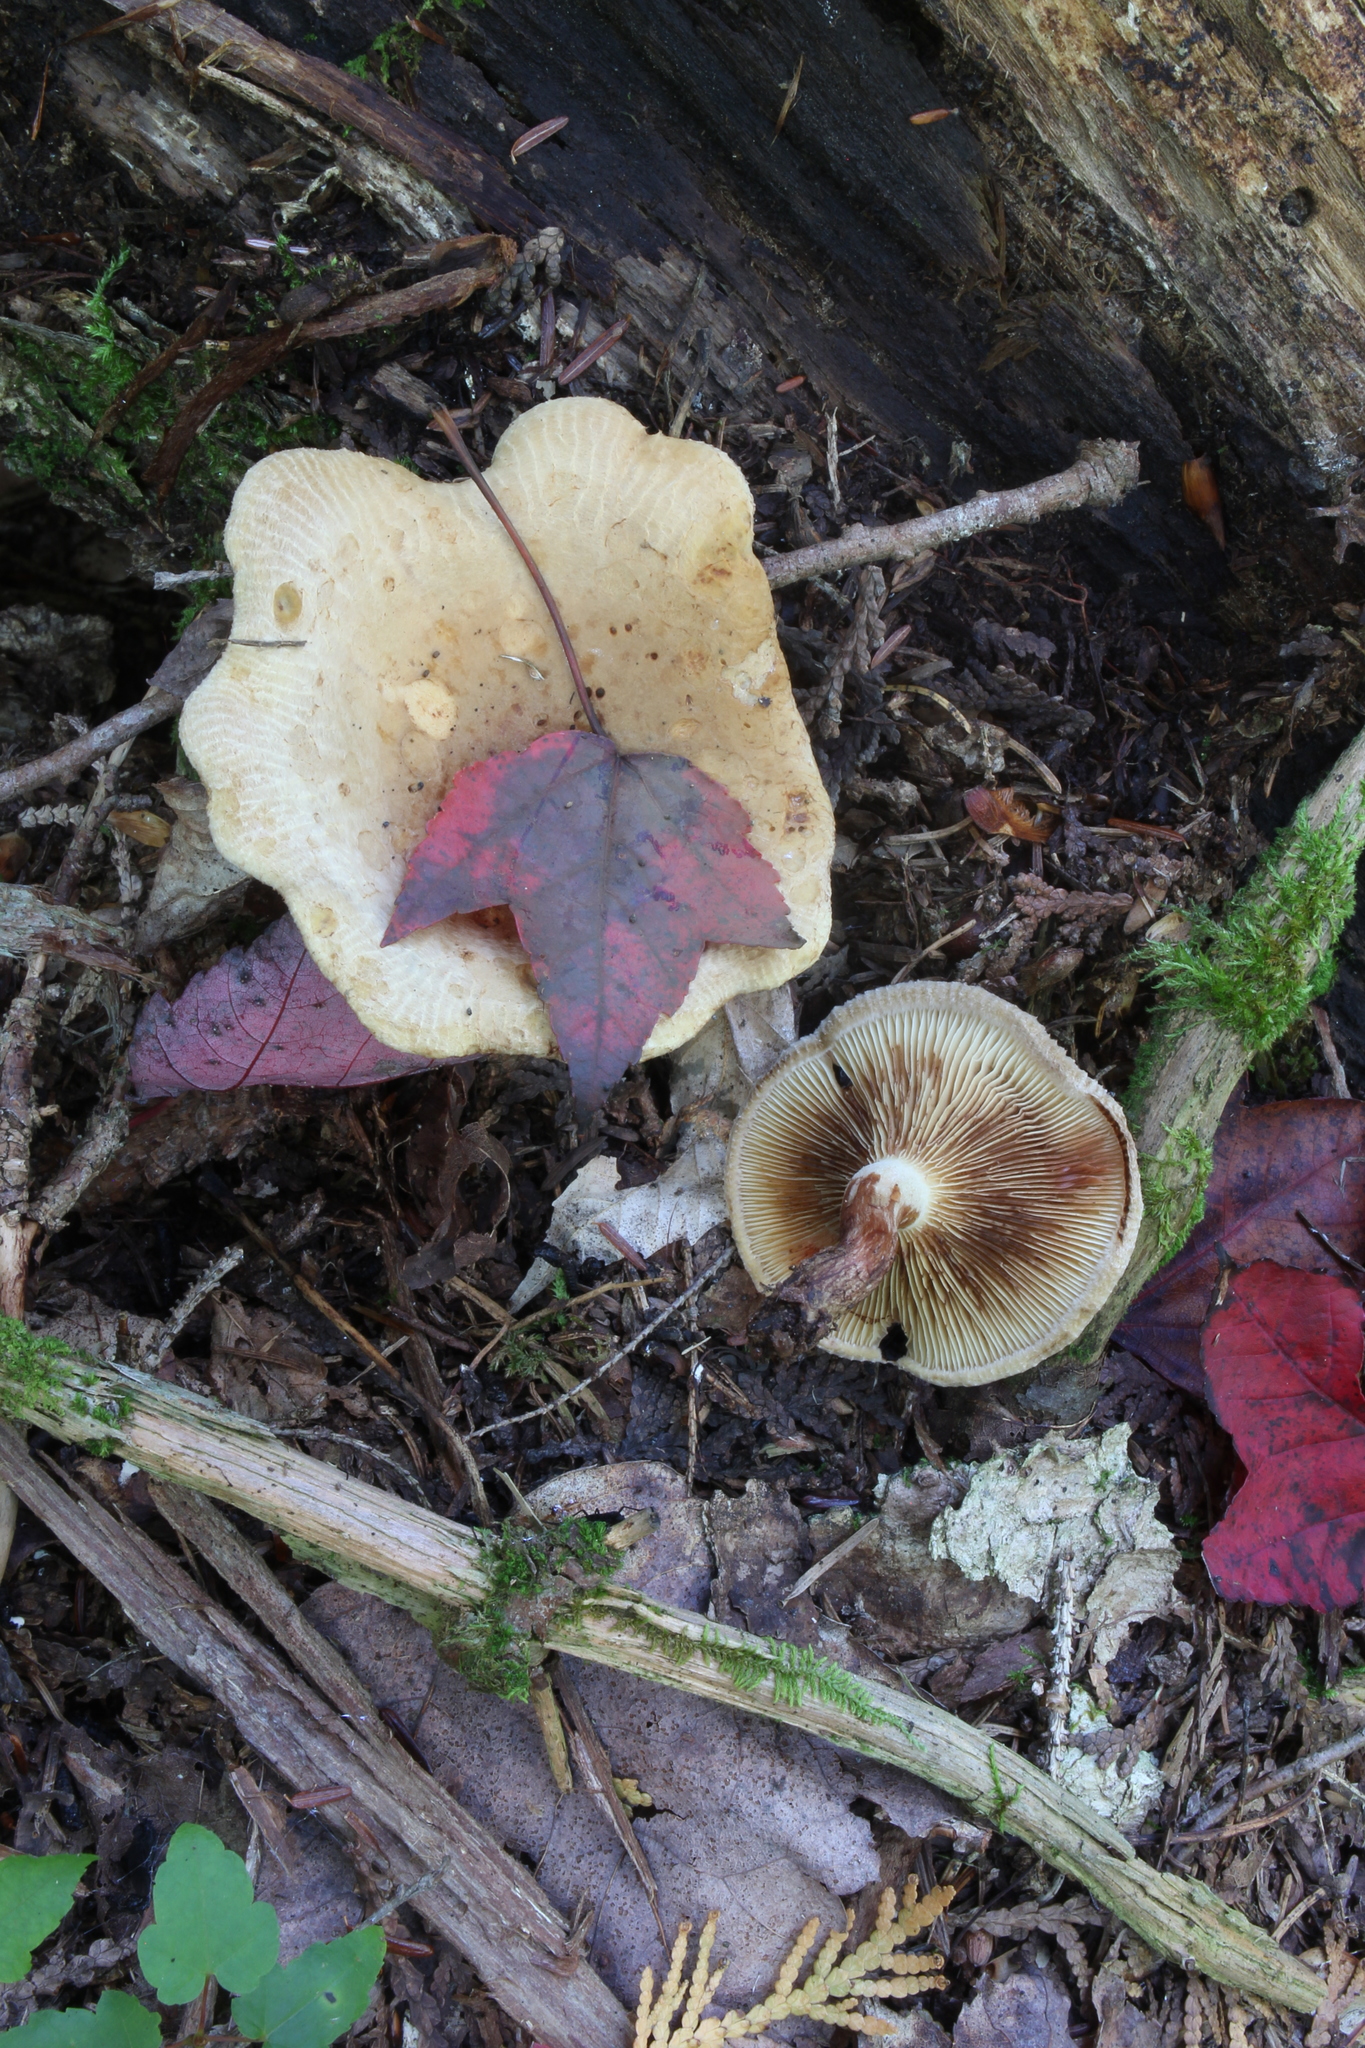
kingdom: Fungi
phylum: Basidiomycota
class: Agaricomycetes
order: Boletales
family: Paxillaceae
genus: Paxillus
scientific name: Paxillus involutus
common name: Brown roll rim
